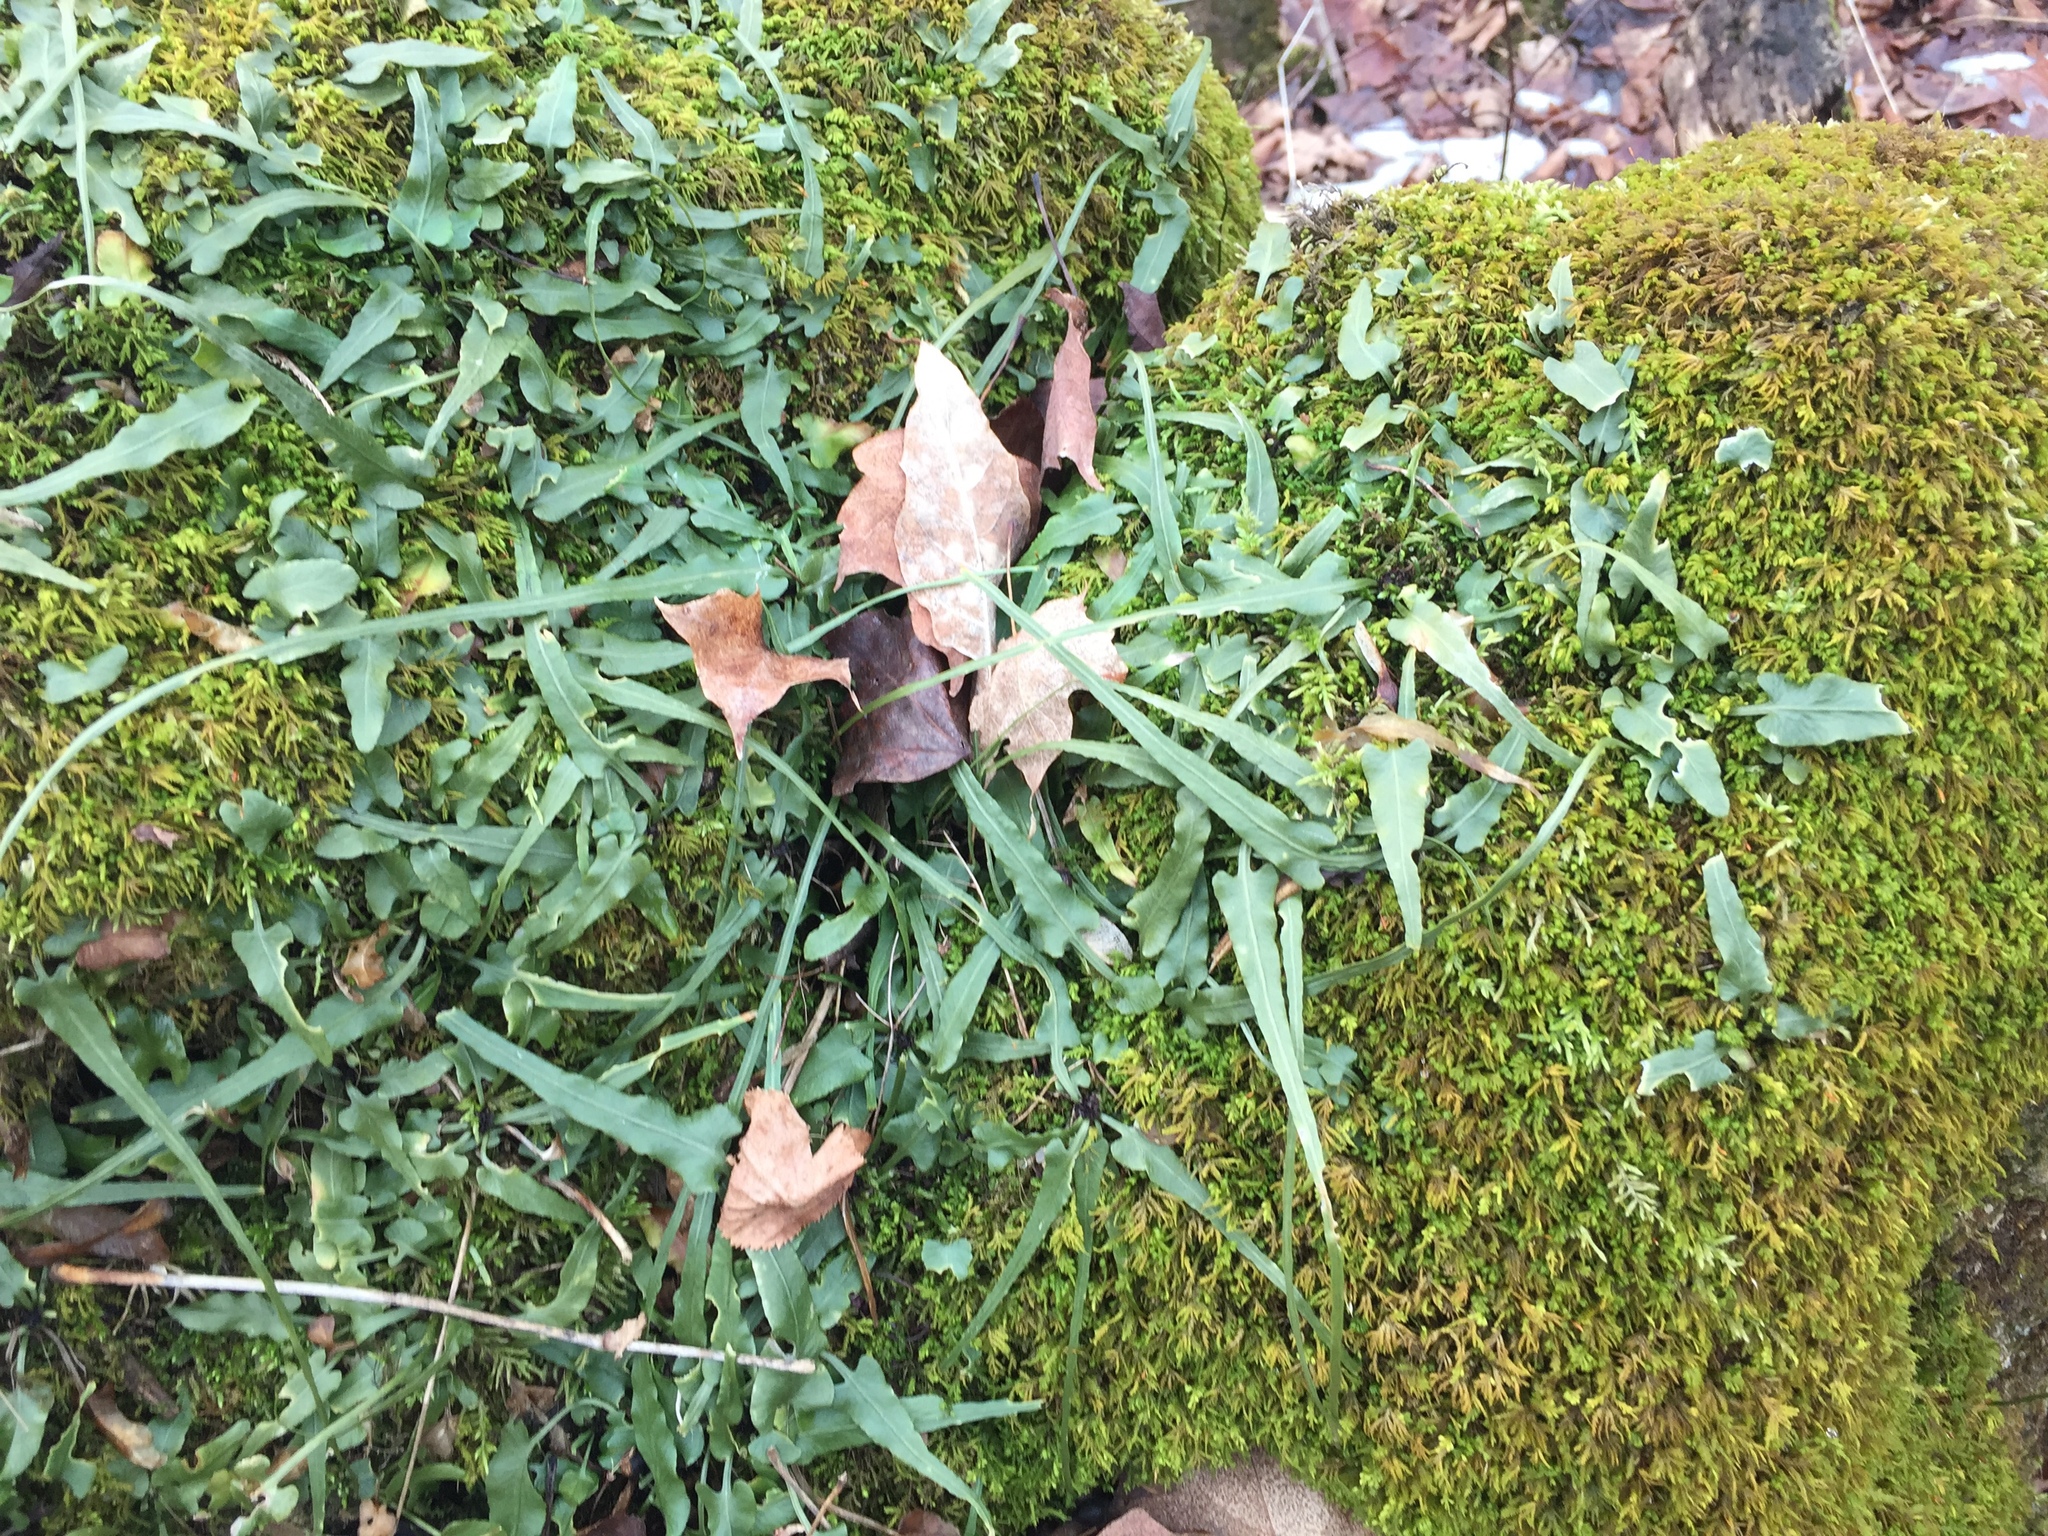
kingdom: Plantae
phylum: Tracheophyta
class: Polypodiopsida
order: Polypodiales
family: Aspleniaceae
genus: Asplenium
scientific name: Asplenium rhizophyllum
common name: Walking fern
